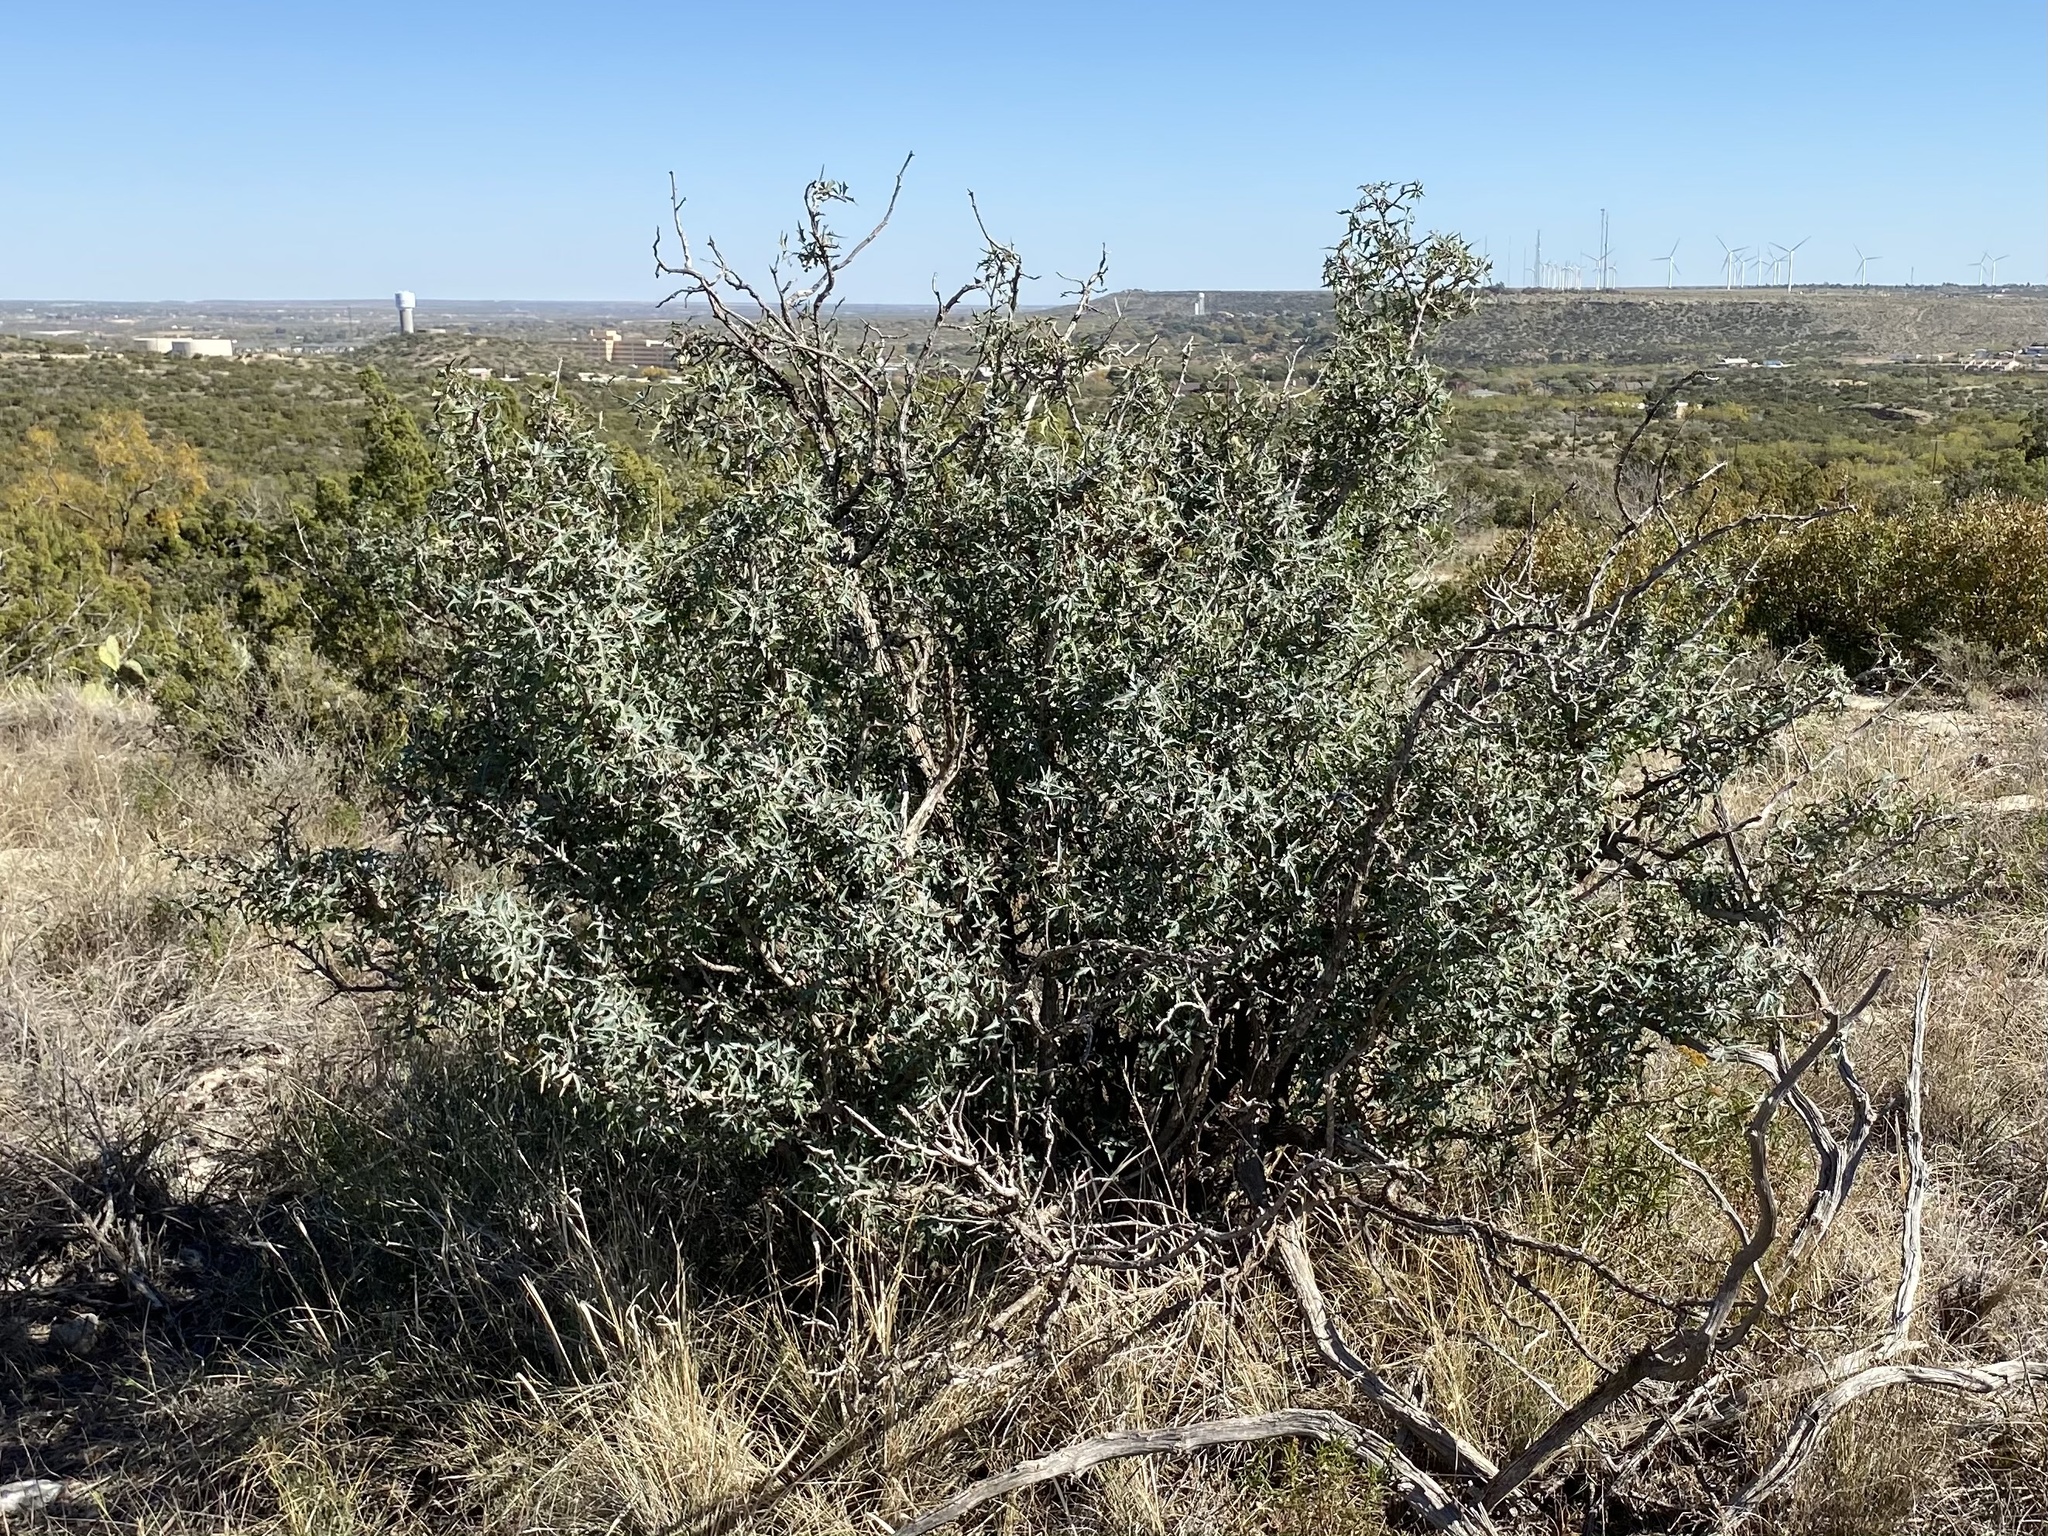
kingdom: Plantae
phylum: Tracheophyta
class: Magnoliopsida
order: Ranunculales
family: Berberidaceae
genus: Alloberberis
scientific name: Alloberberis trifoliolata
